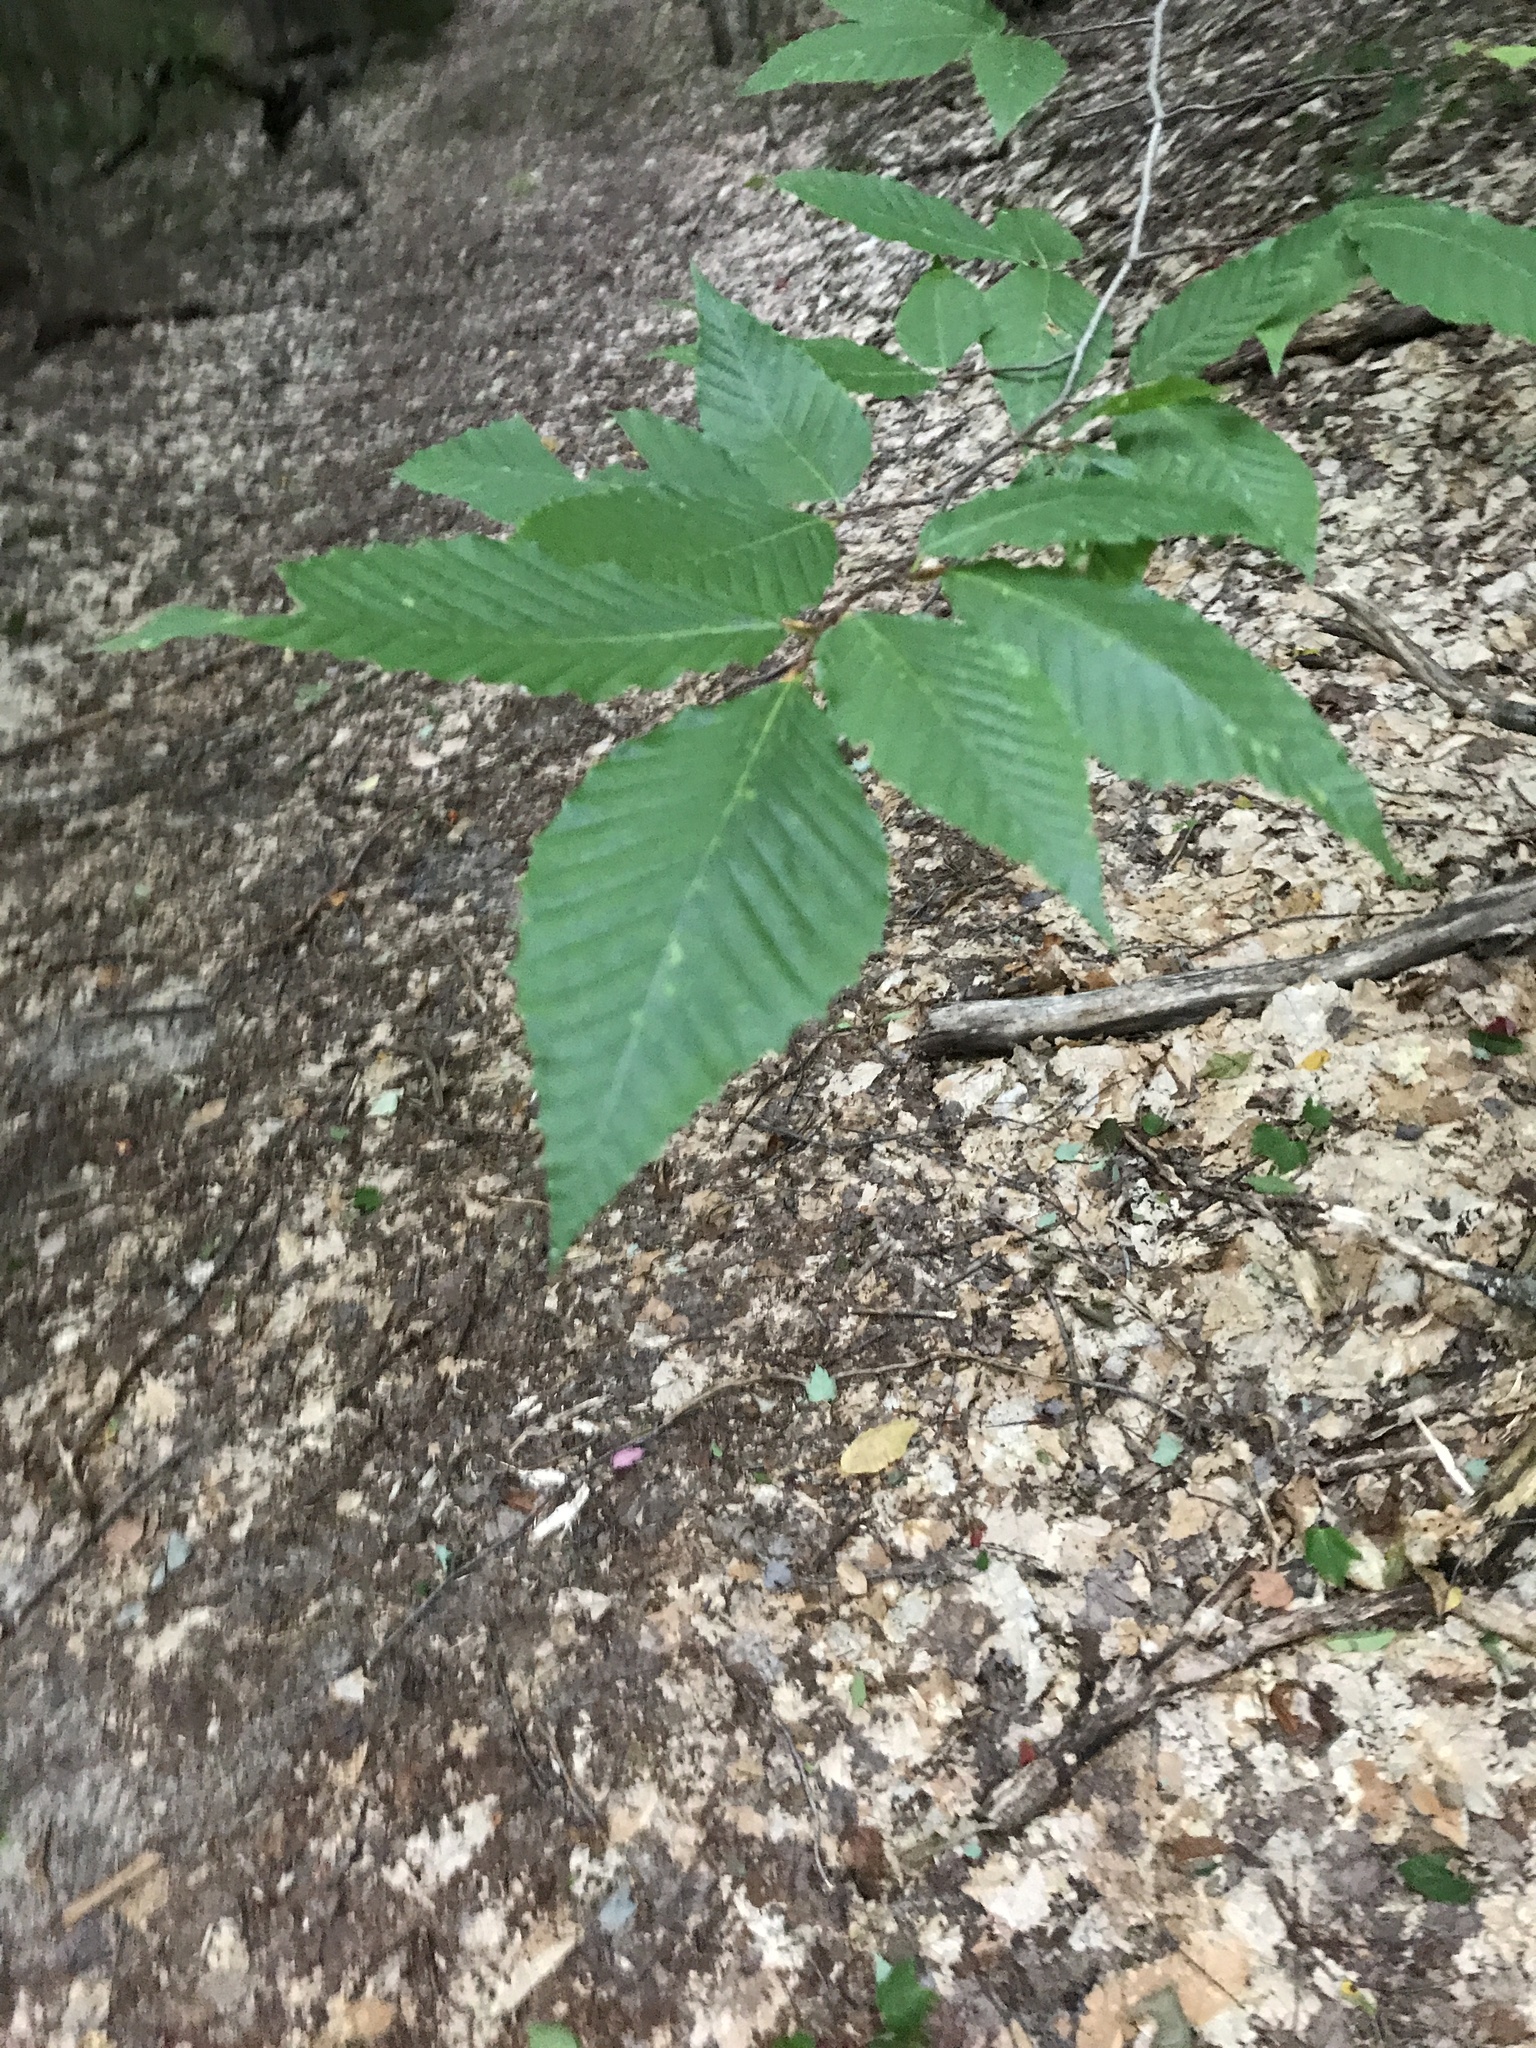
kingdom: Plantae
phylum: Tracheophyta
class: Magnoliopsida
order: Fagales
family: Fagaceae
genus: Fagus
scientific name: Fagus grandifolia
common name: American beech
